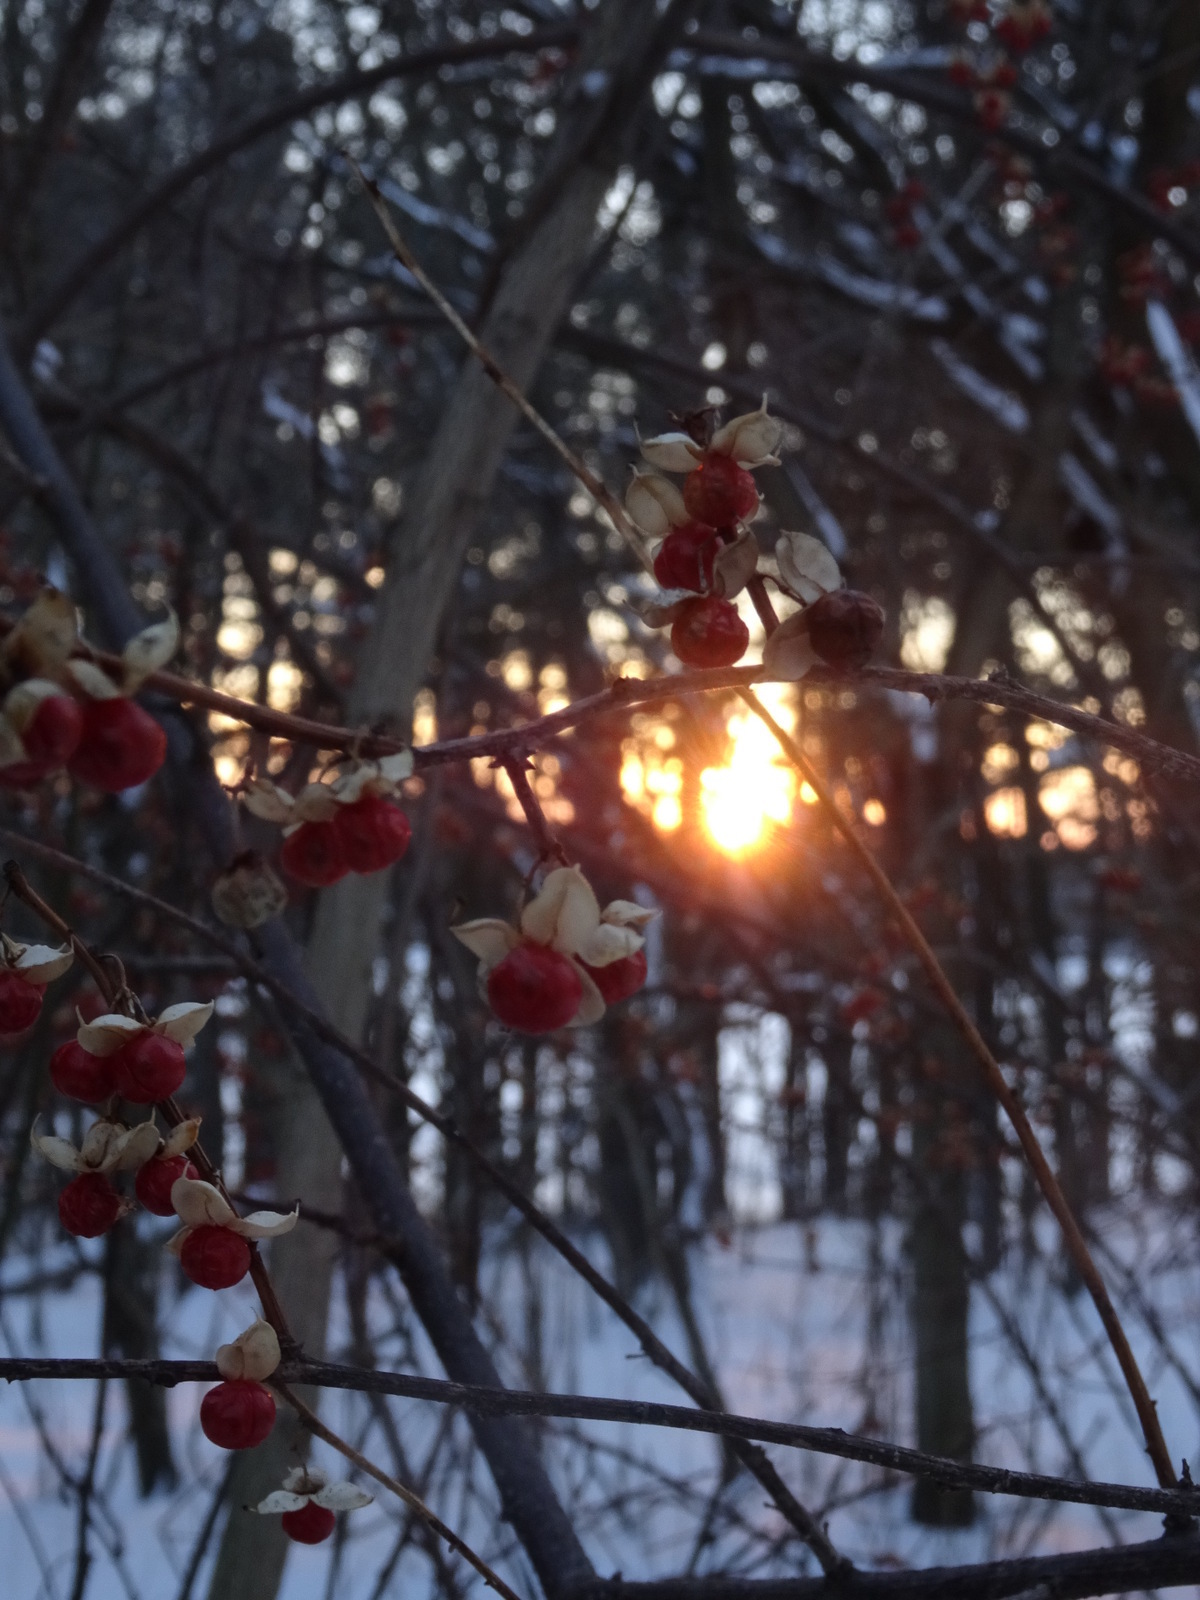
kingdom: Plantae
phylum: Tracheophyta
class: Magnoliopsida
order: Celastrales
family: Celastraceae
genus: Celastrus
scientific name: Celastrus orbiculatus
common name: Oriental bittersweet
